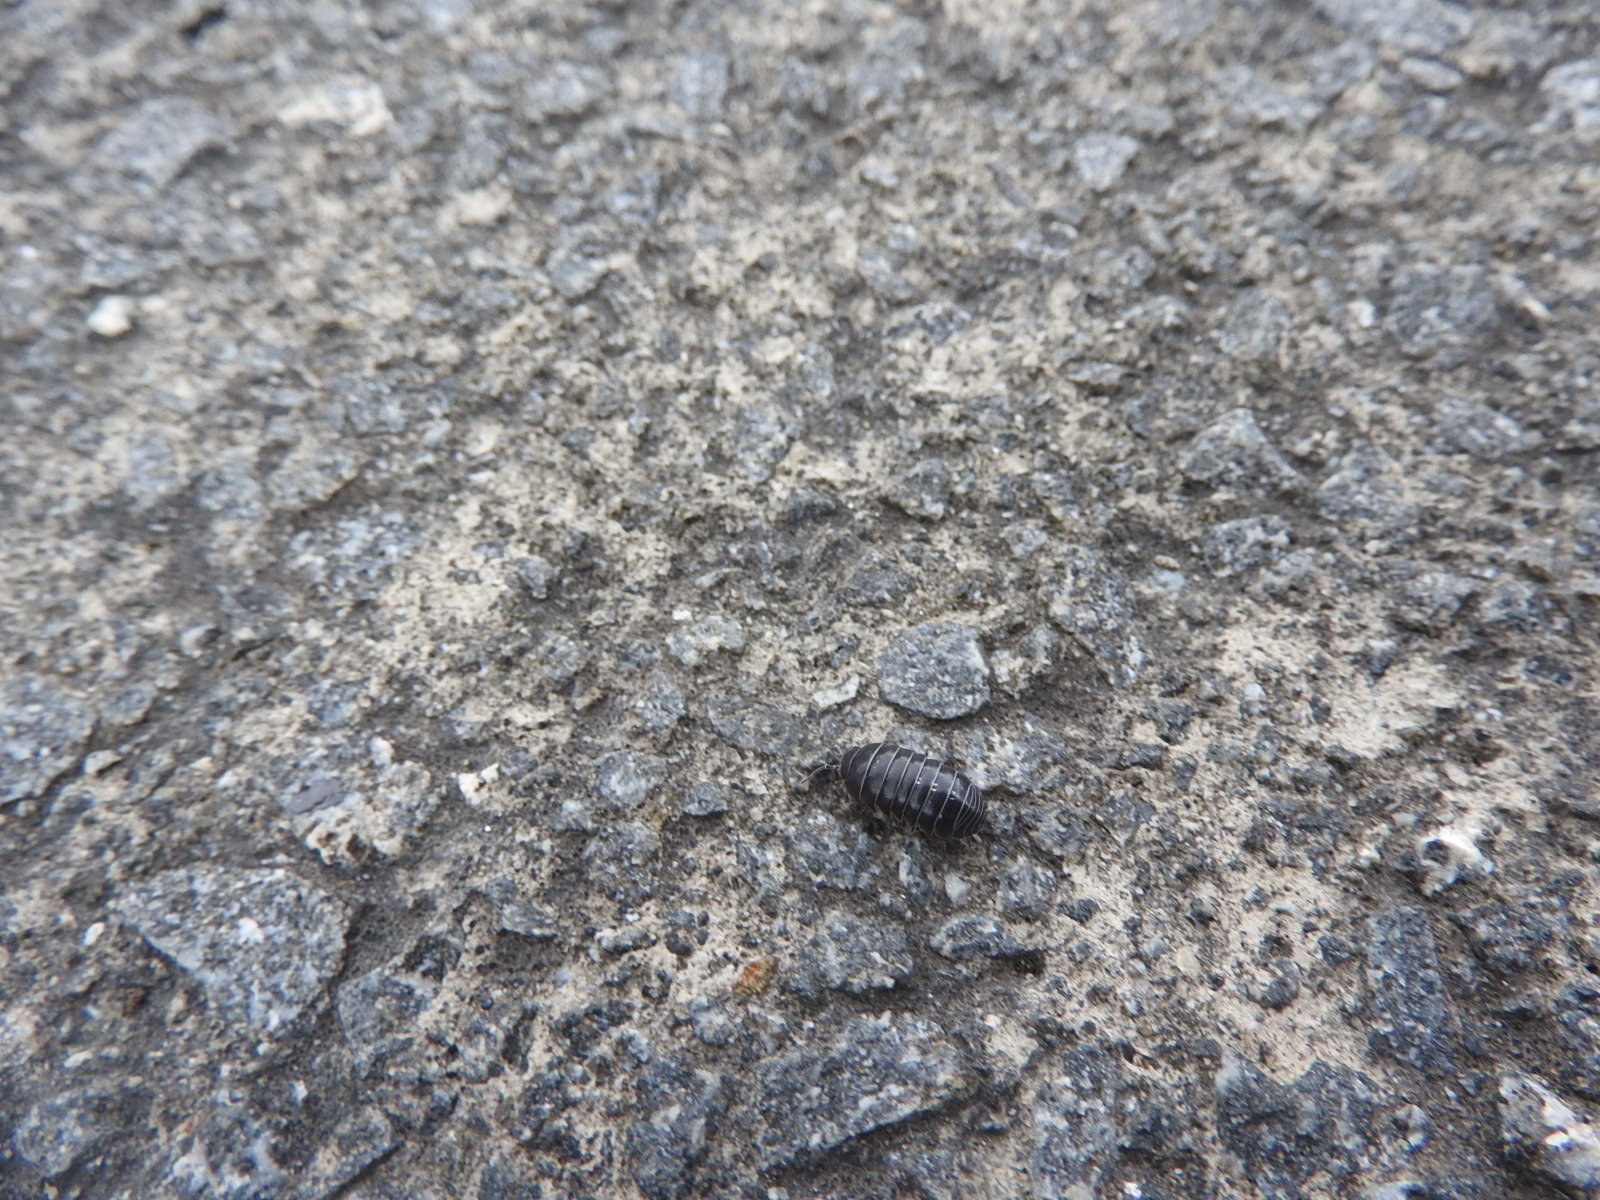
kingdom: Animalia
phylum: Arthropoda
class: Malacostraca
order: Isopoda
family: Armadillidiidae
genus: Armadillidium
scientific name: Armadillidium vulgare
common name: Common pill woodlouse
